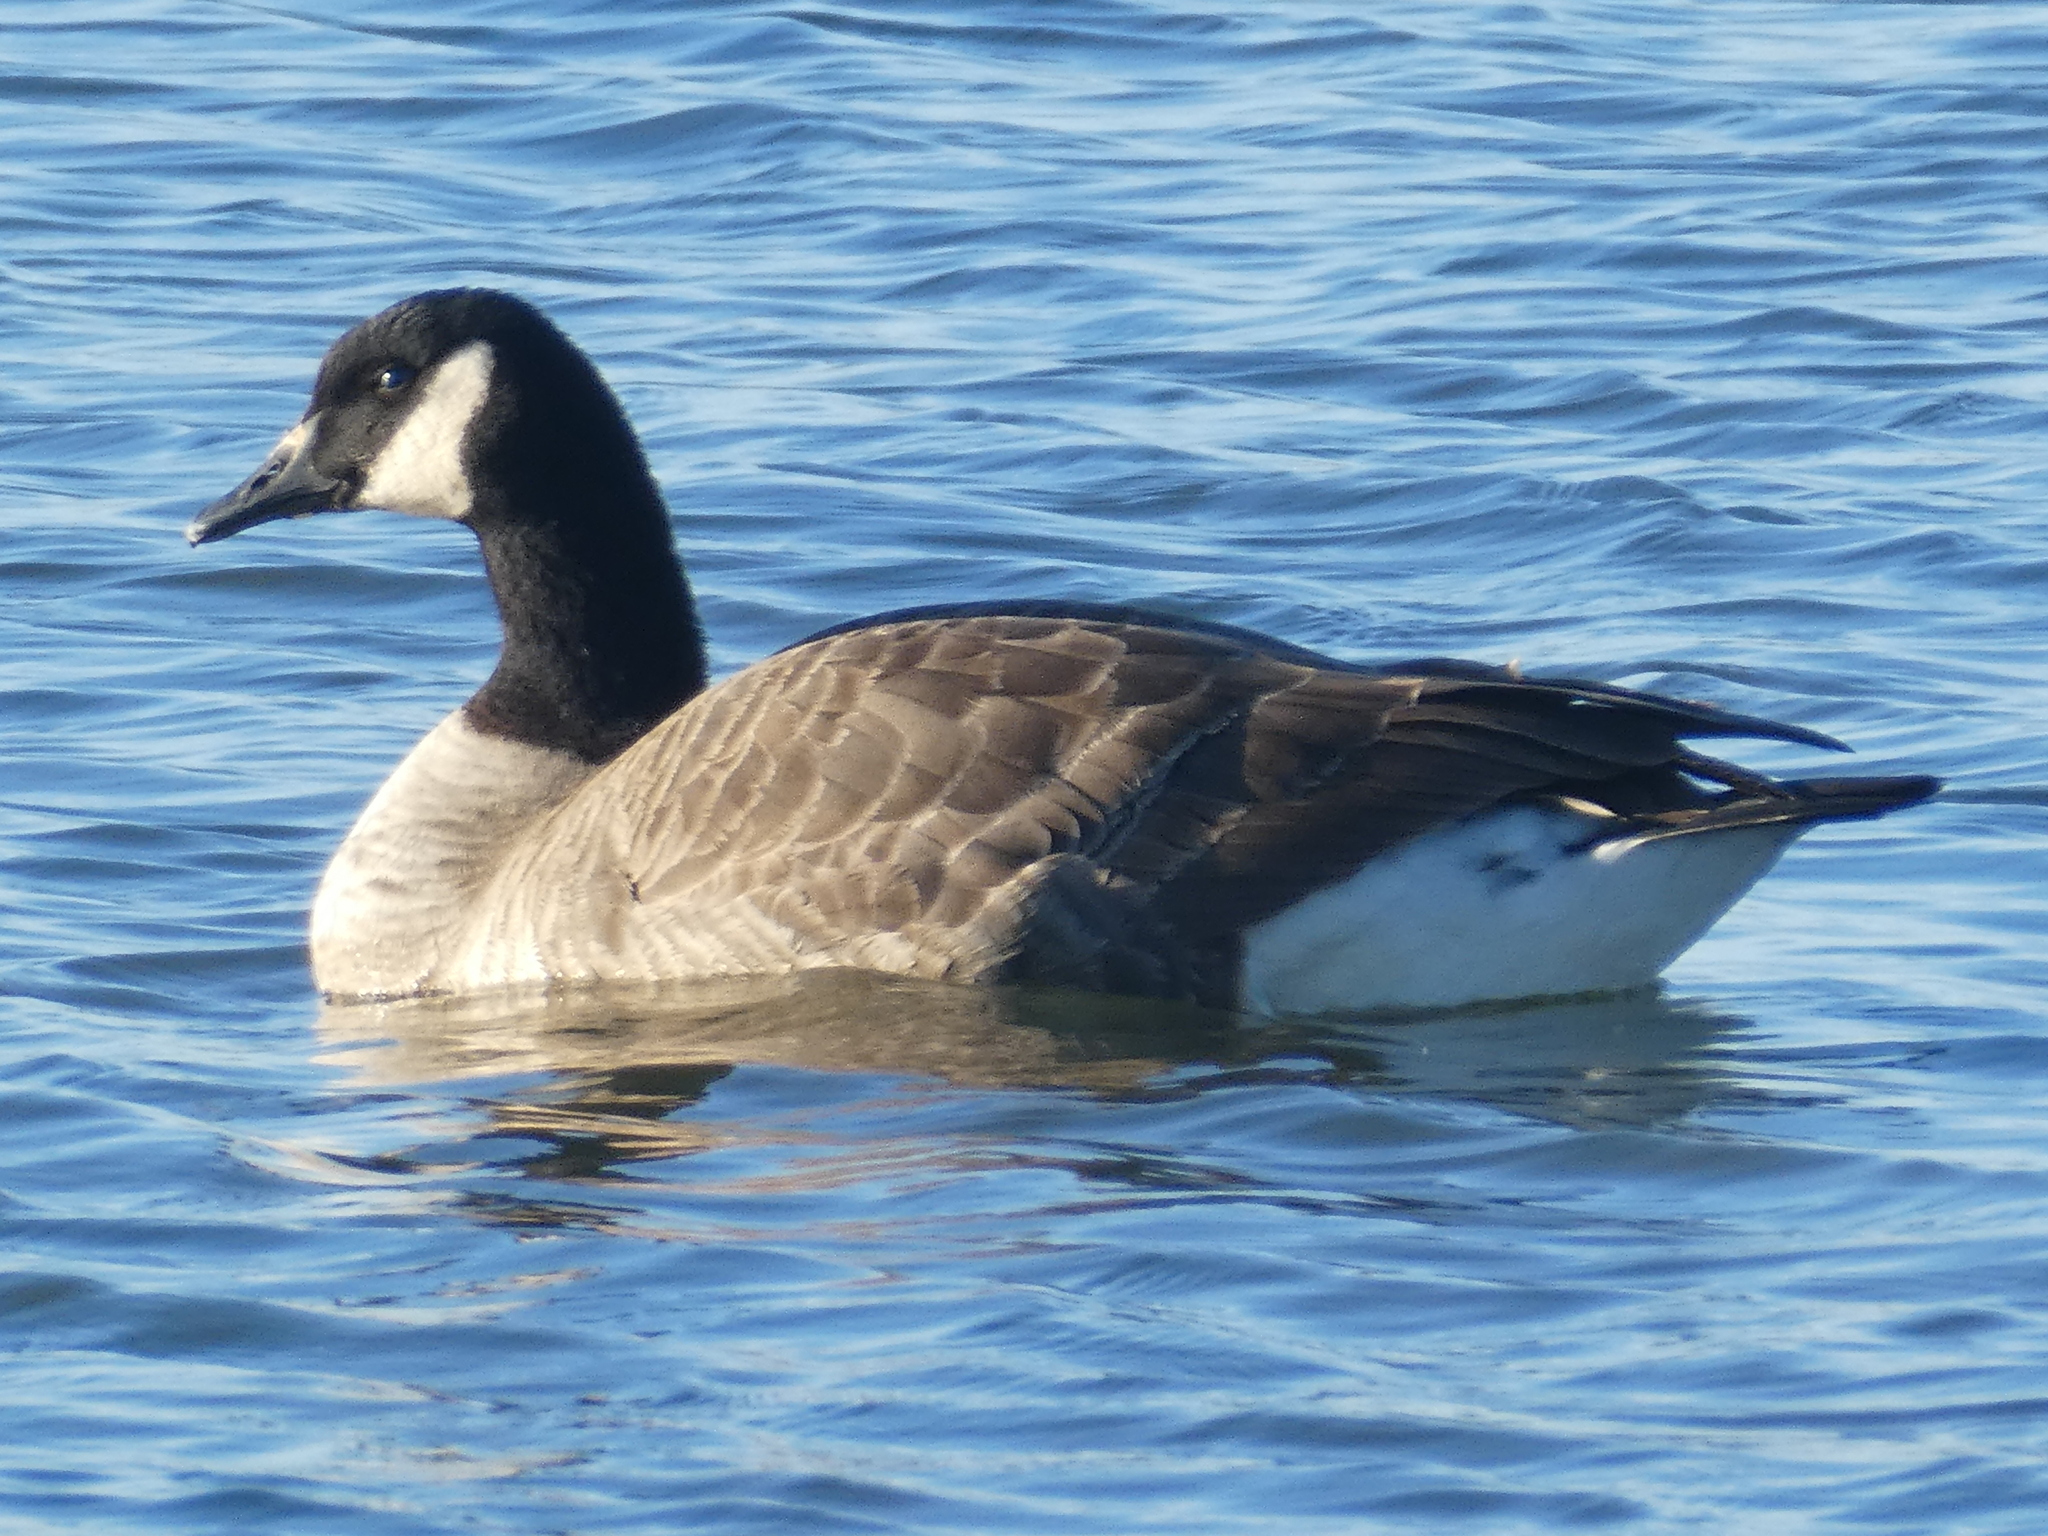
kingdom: Animalia
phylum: Chordata
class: Aves
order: Anseriformes
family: Anatidae
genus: Branta
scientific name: Branta canadensis
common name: Canada goose
